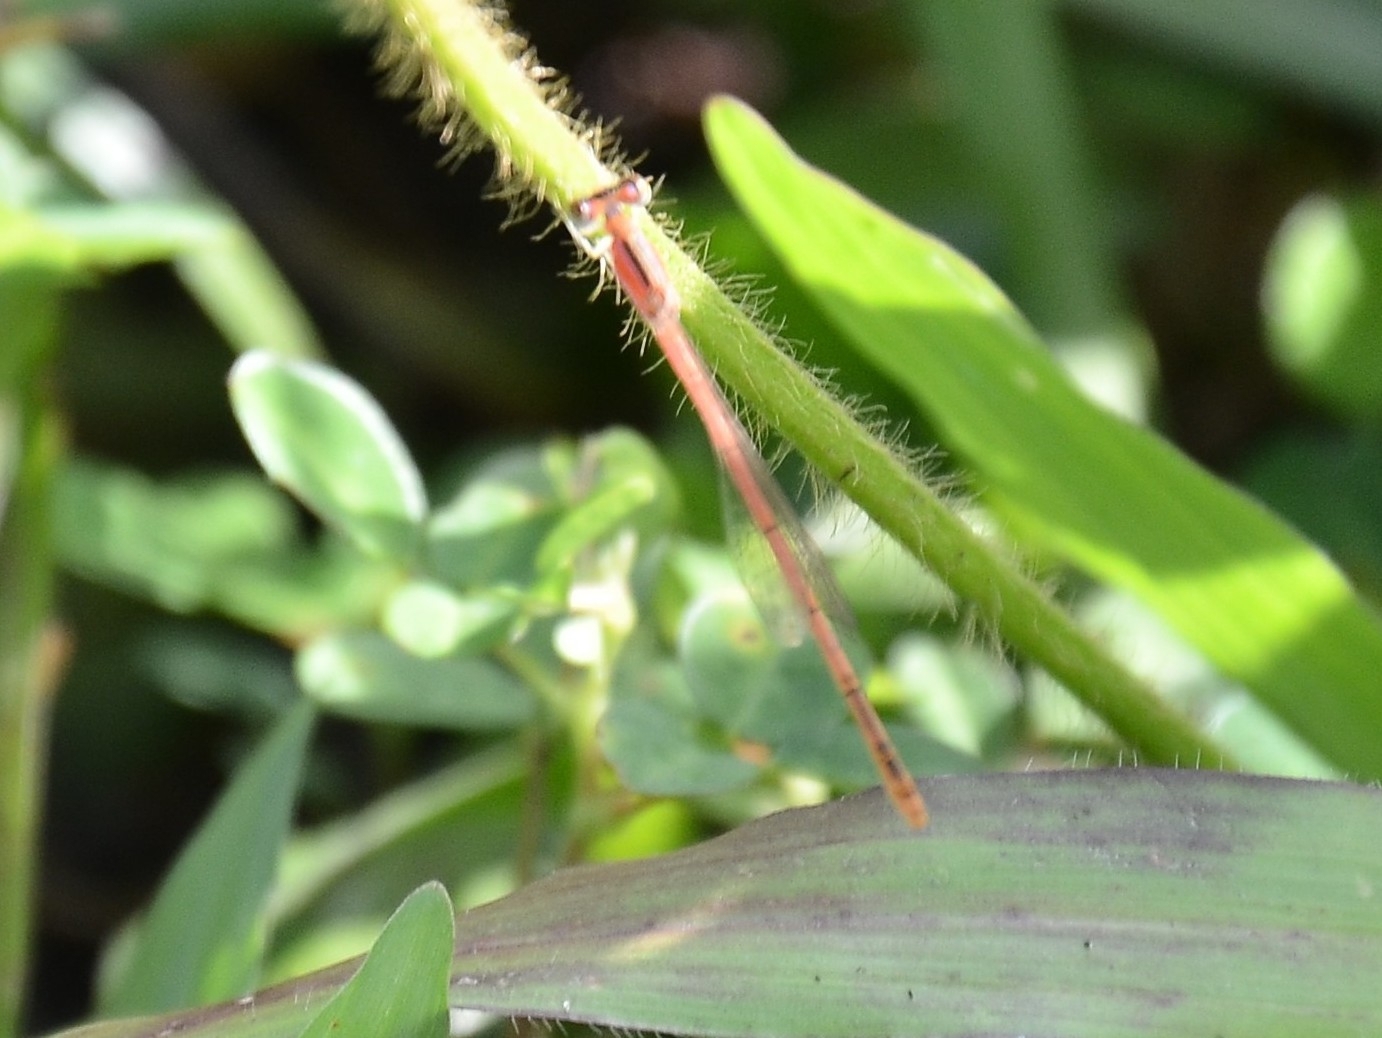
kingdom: Animalia
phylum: Arthropoda
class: Insecta
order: Odonata
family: Coenagrionidae
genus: Agriocnemis
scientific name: Agriocnemis pygmaea
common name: Pygmy wisp
